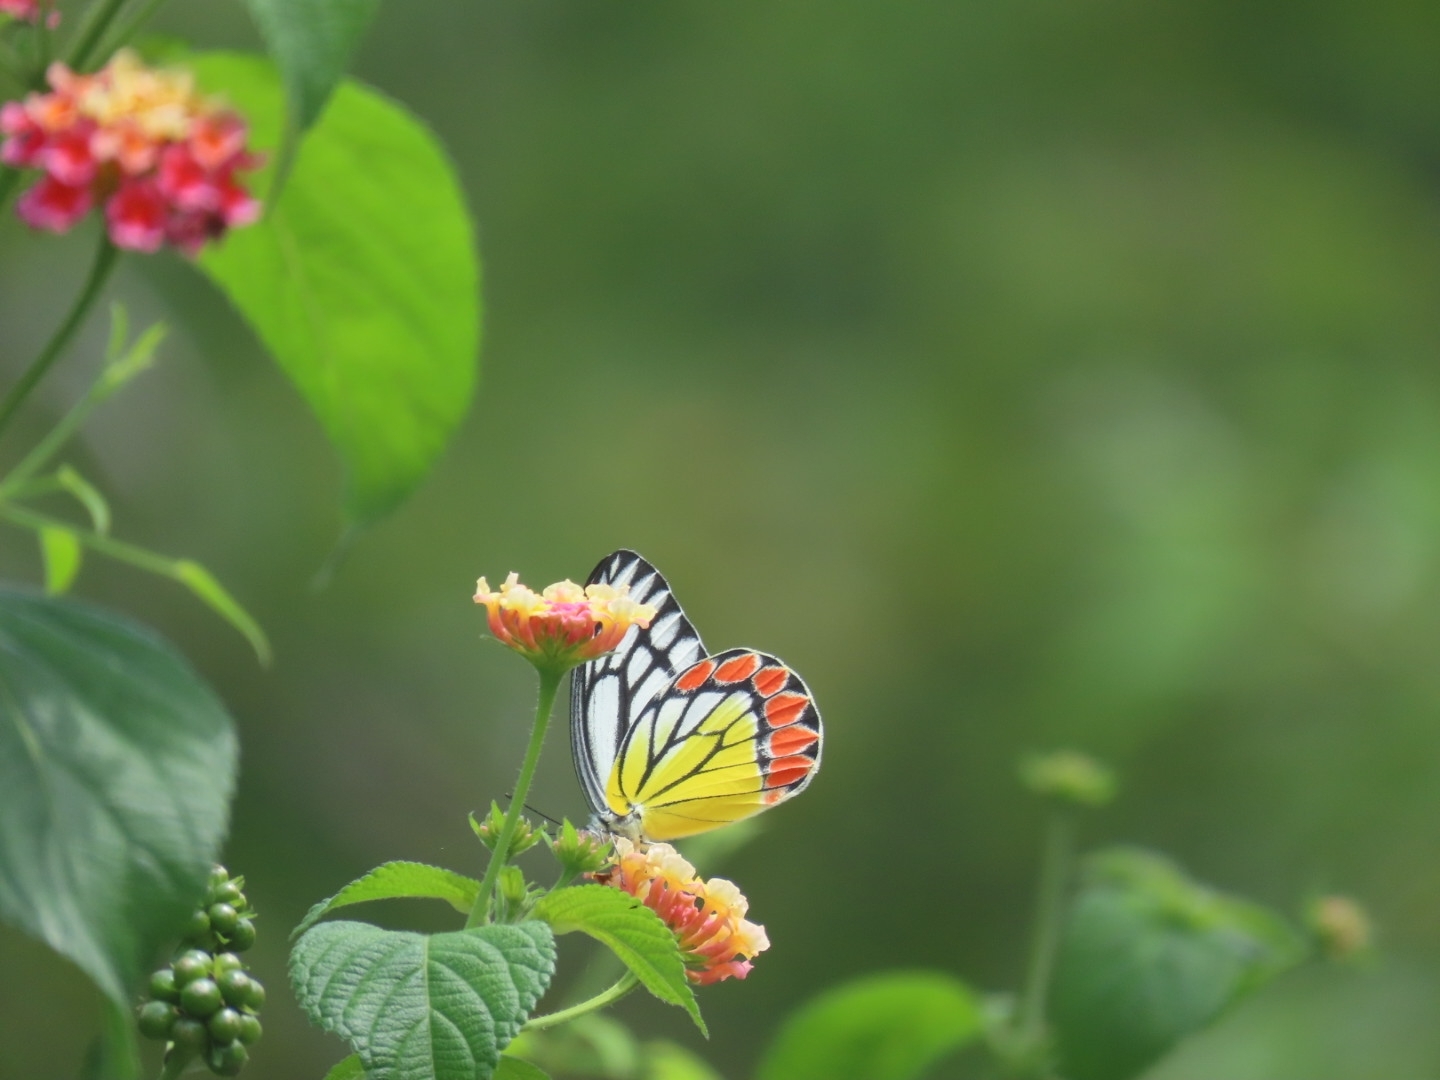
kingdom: Animalia
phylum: Arthropoda
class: Insecta
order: Lepidoptera
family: Pieridae
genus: Delias
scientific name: Delias eucharis
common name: Common jezebel
